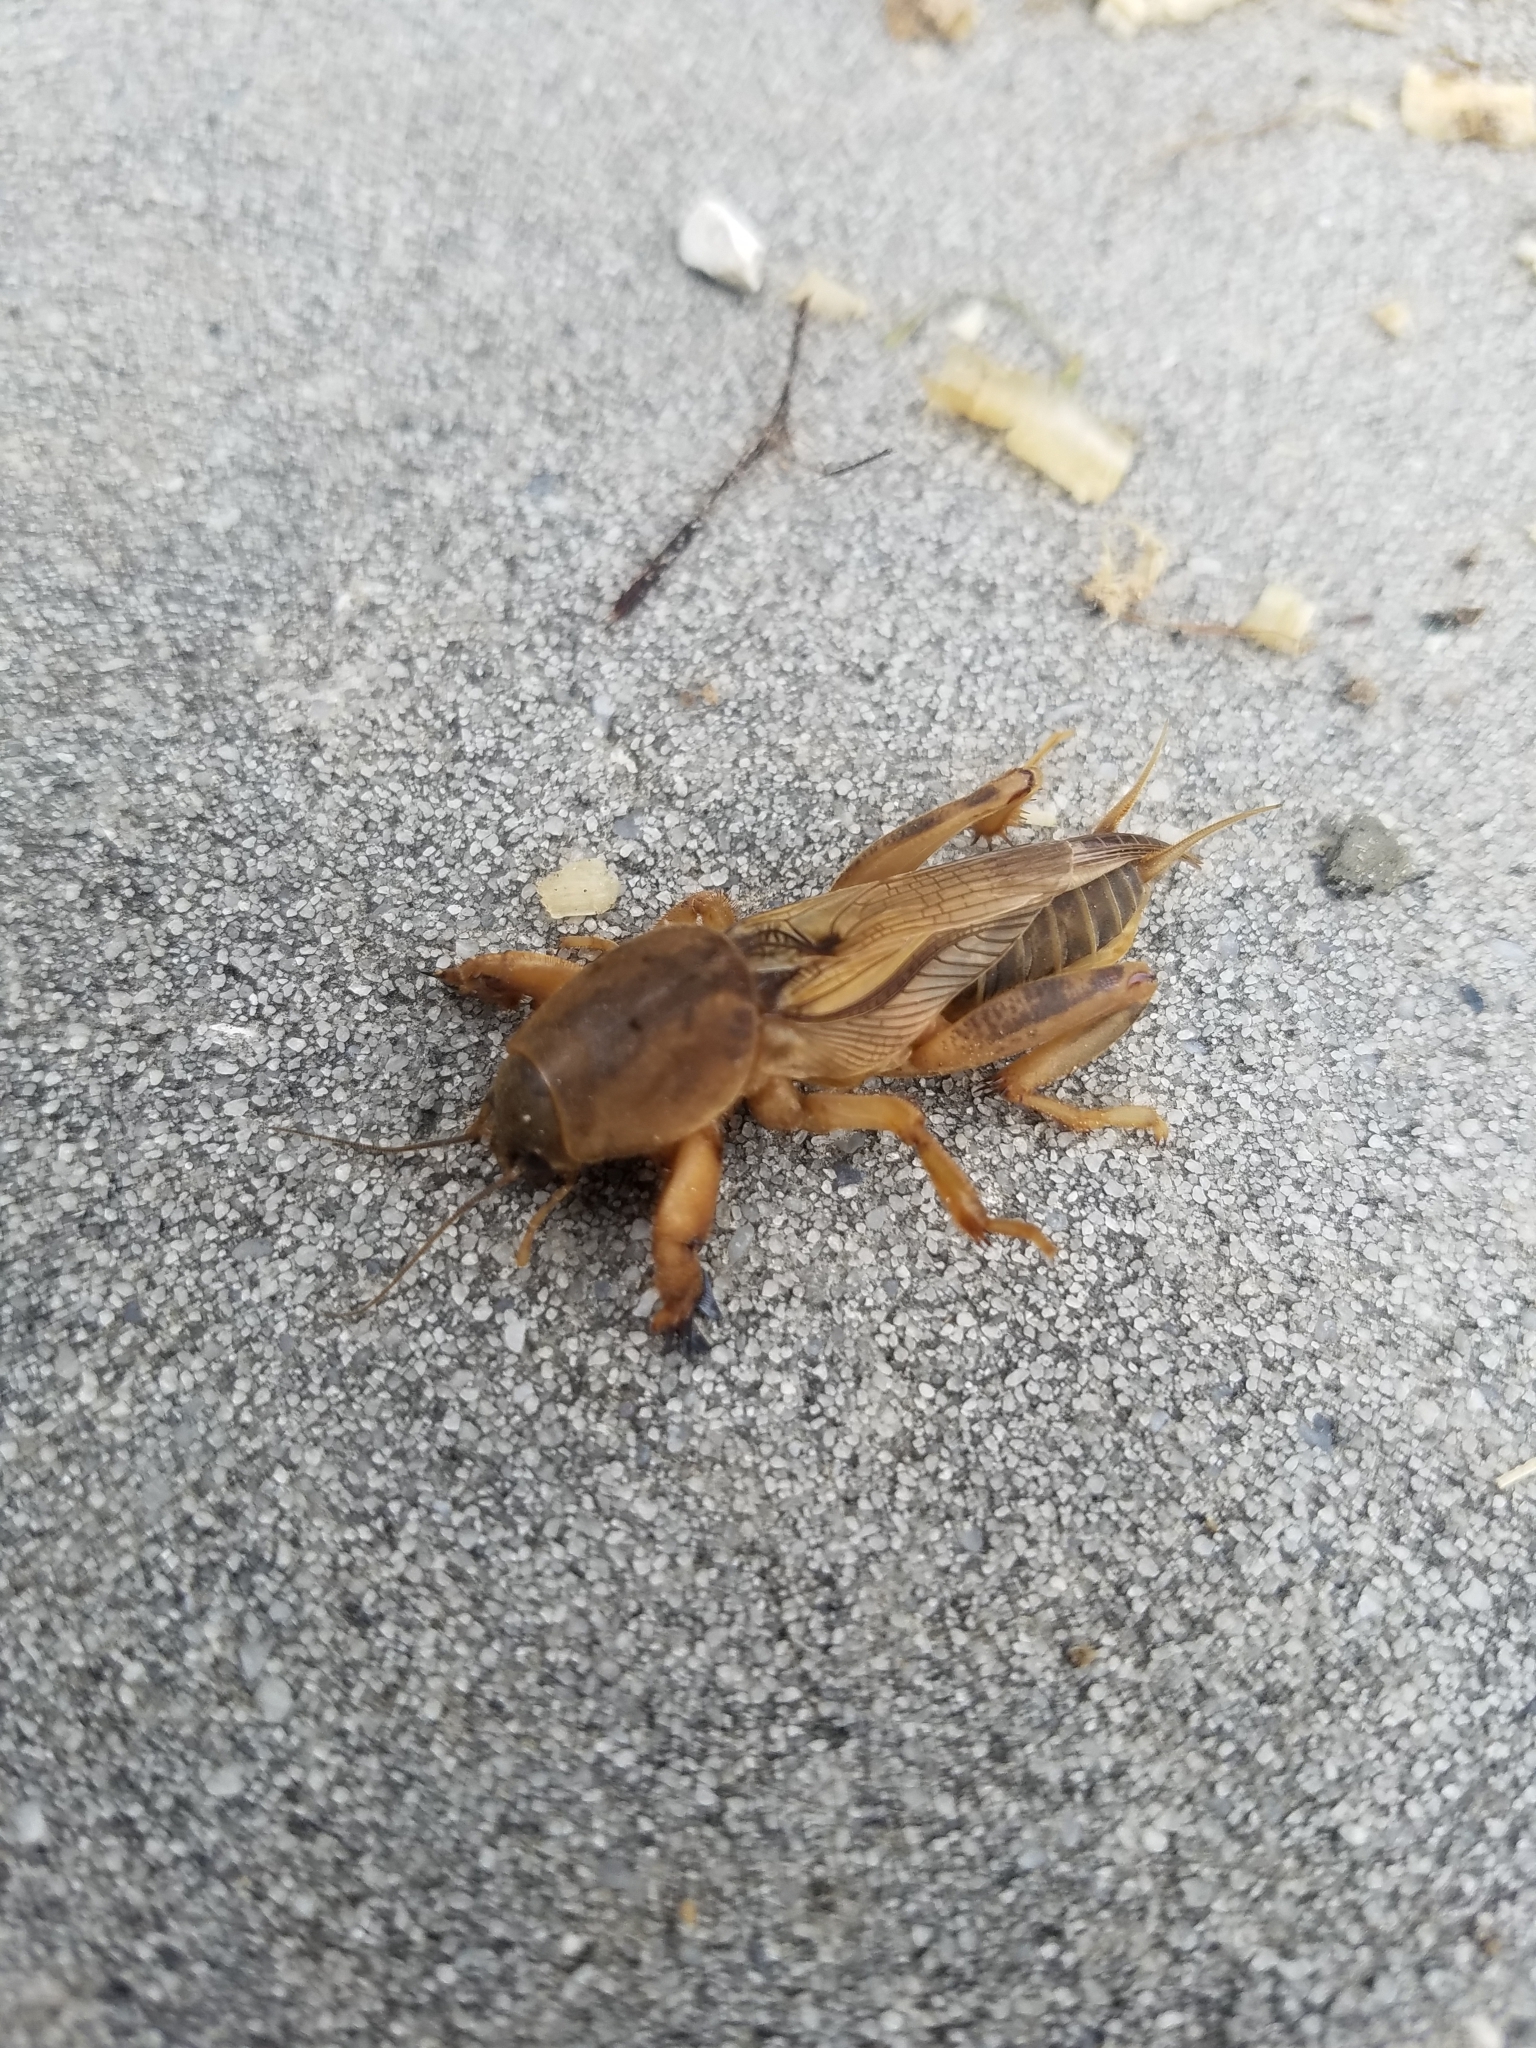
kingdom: Animalia
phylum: Arthropoda
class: Insecta
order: Orthoptera
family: Gryllotalpidae
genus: Neoscapteriscus
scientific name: Neoscapteriscus vicinus
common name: Tawny mole cricket
